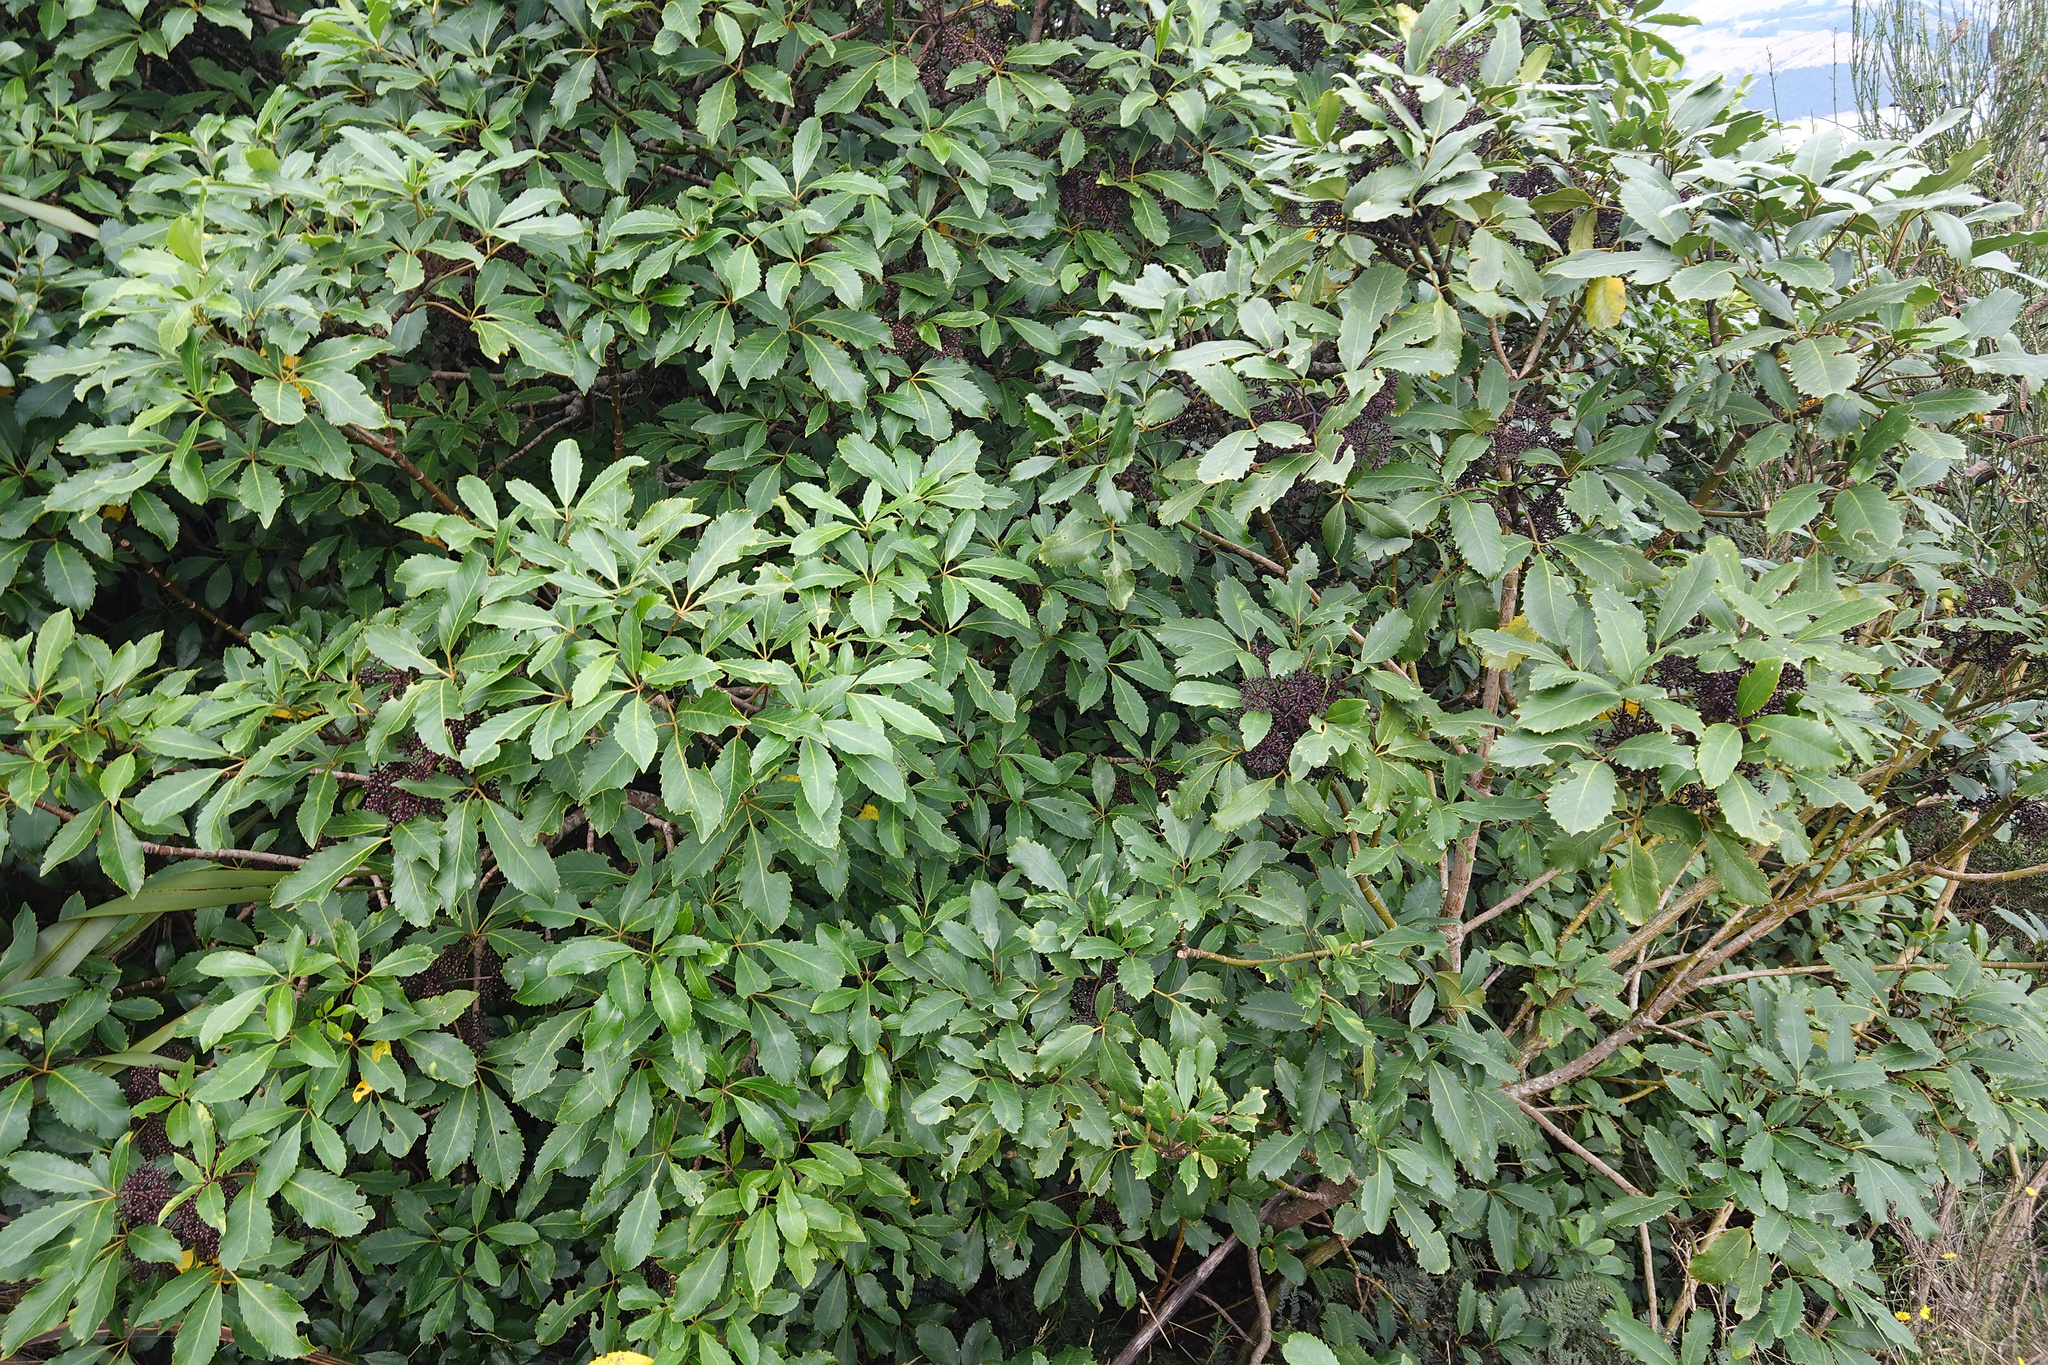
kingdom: Plantae
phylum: Tracheophyta
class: Magnoliopsida
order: Apiales
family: Araliaceae
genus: Neopanax
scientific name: Neopanax arboreus
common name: Five-fingers
